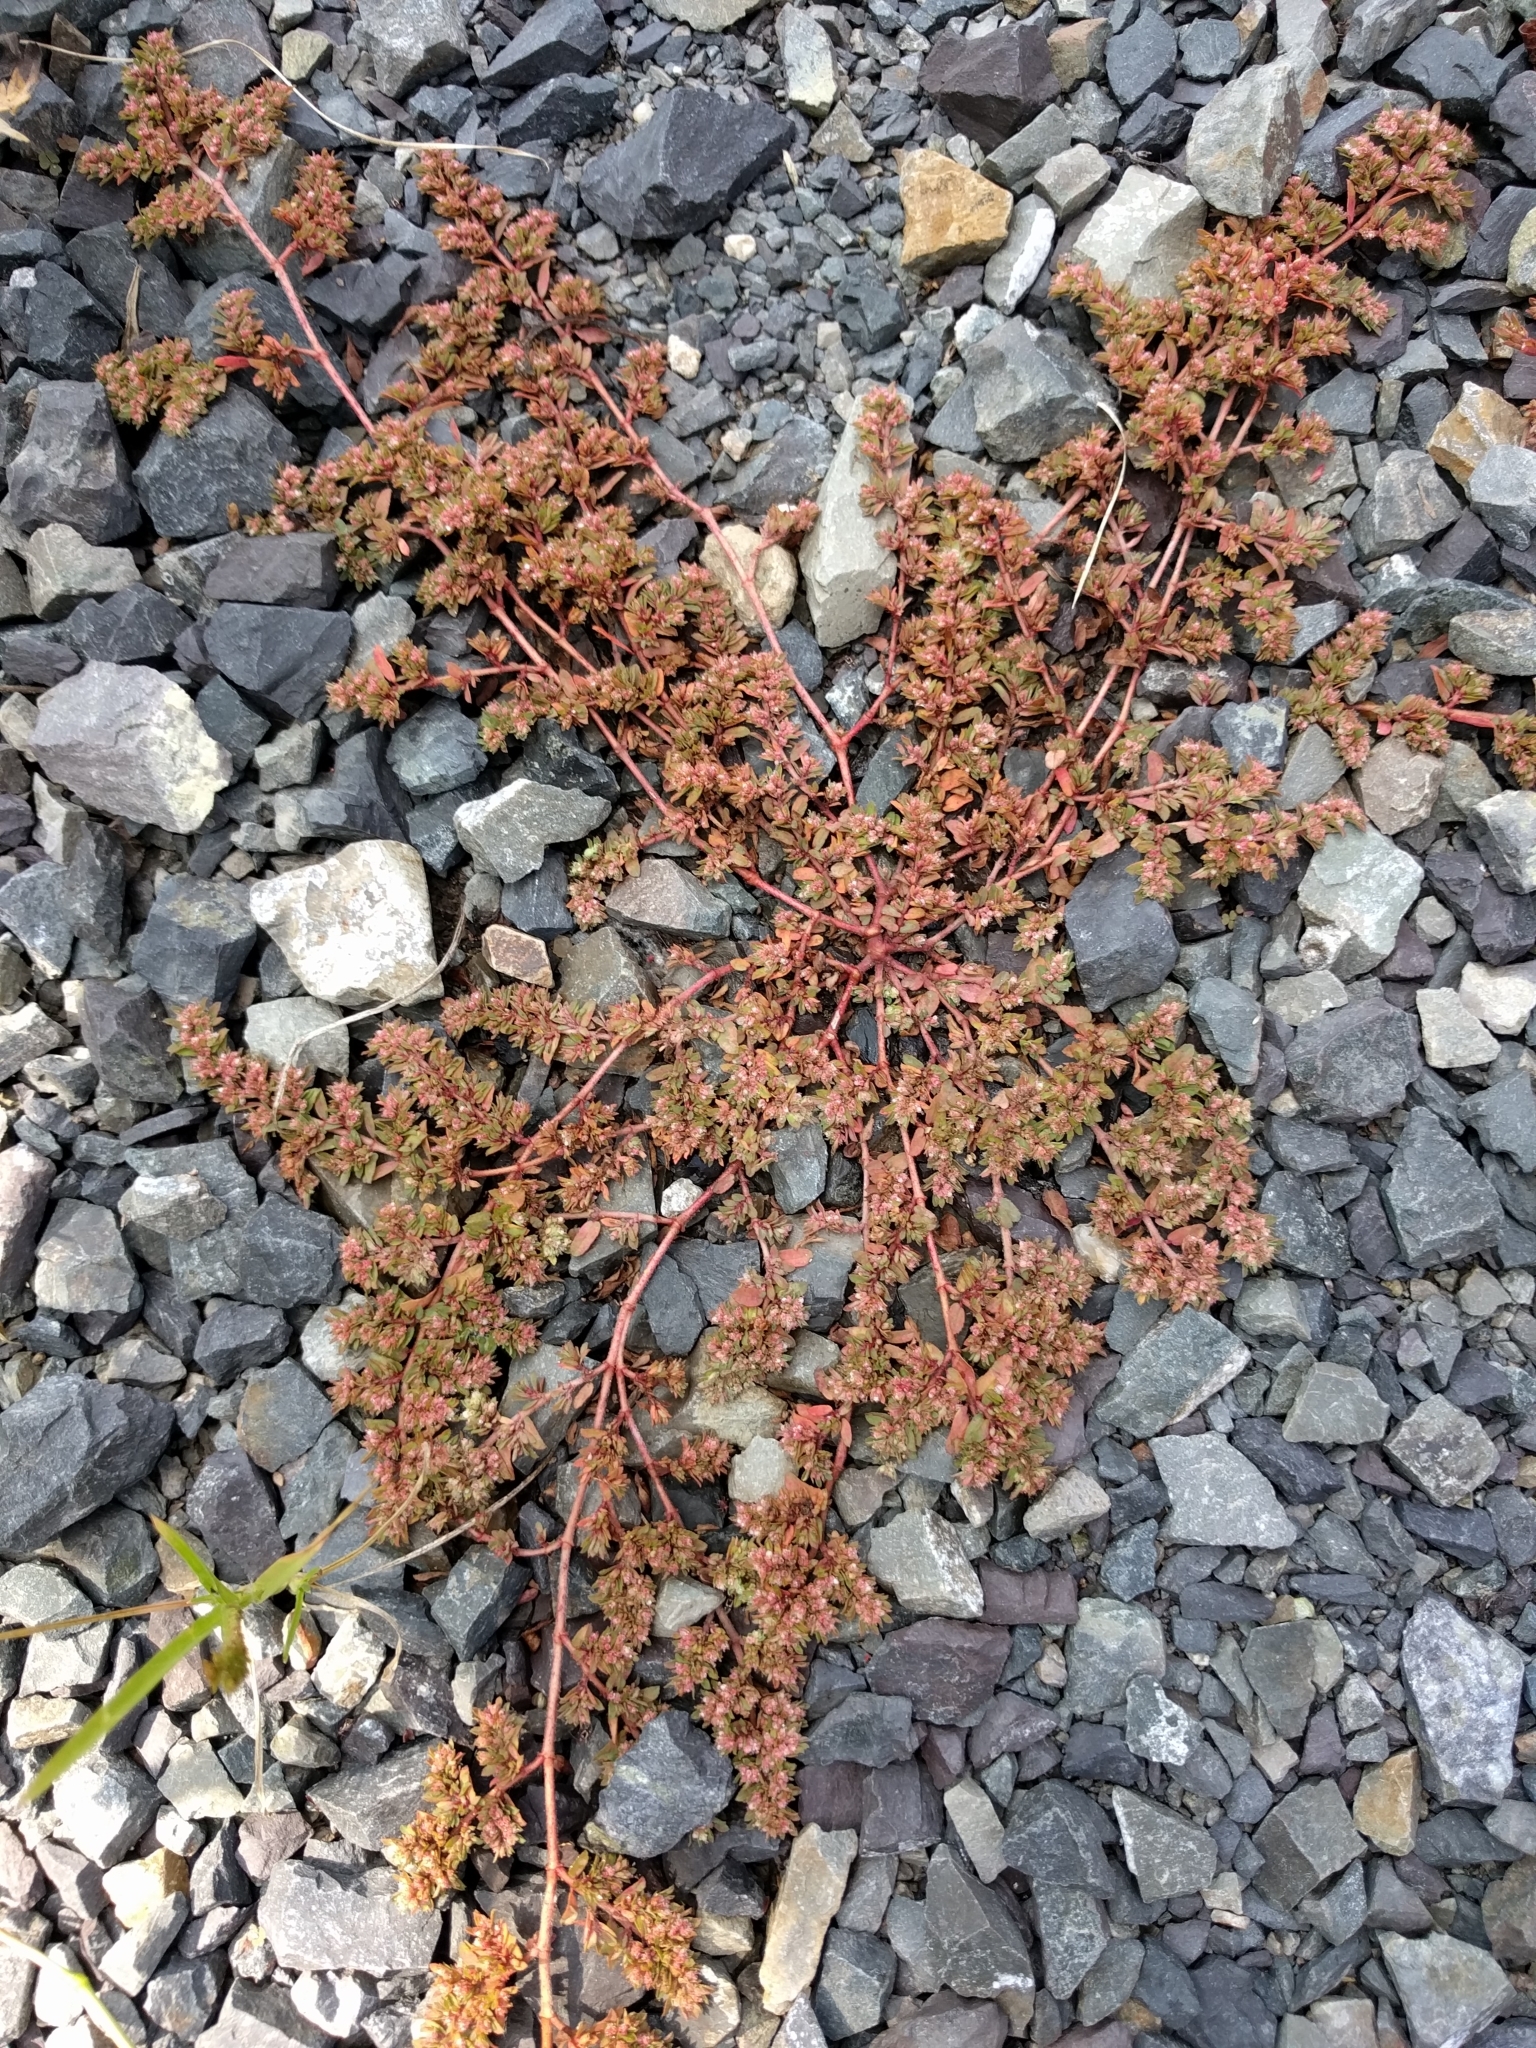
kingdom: Plantae
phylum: Tracheophyta
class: Magnoliopsida
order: Malpighiales
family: Euphorbiaceae
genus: Euphorbia
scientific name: Euphorbia maculata
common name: Spotted spurge
